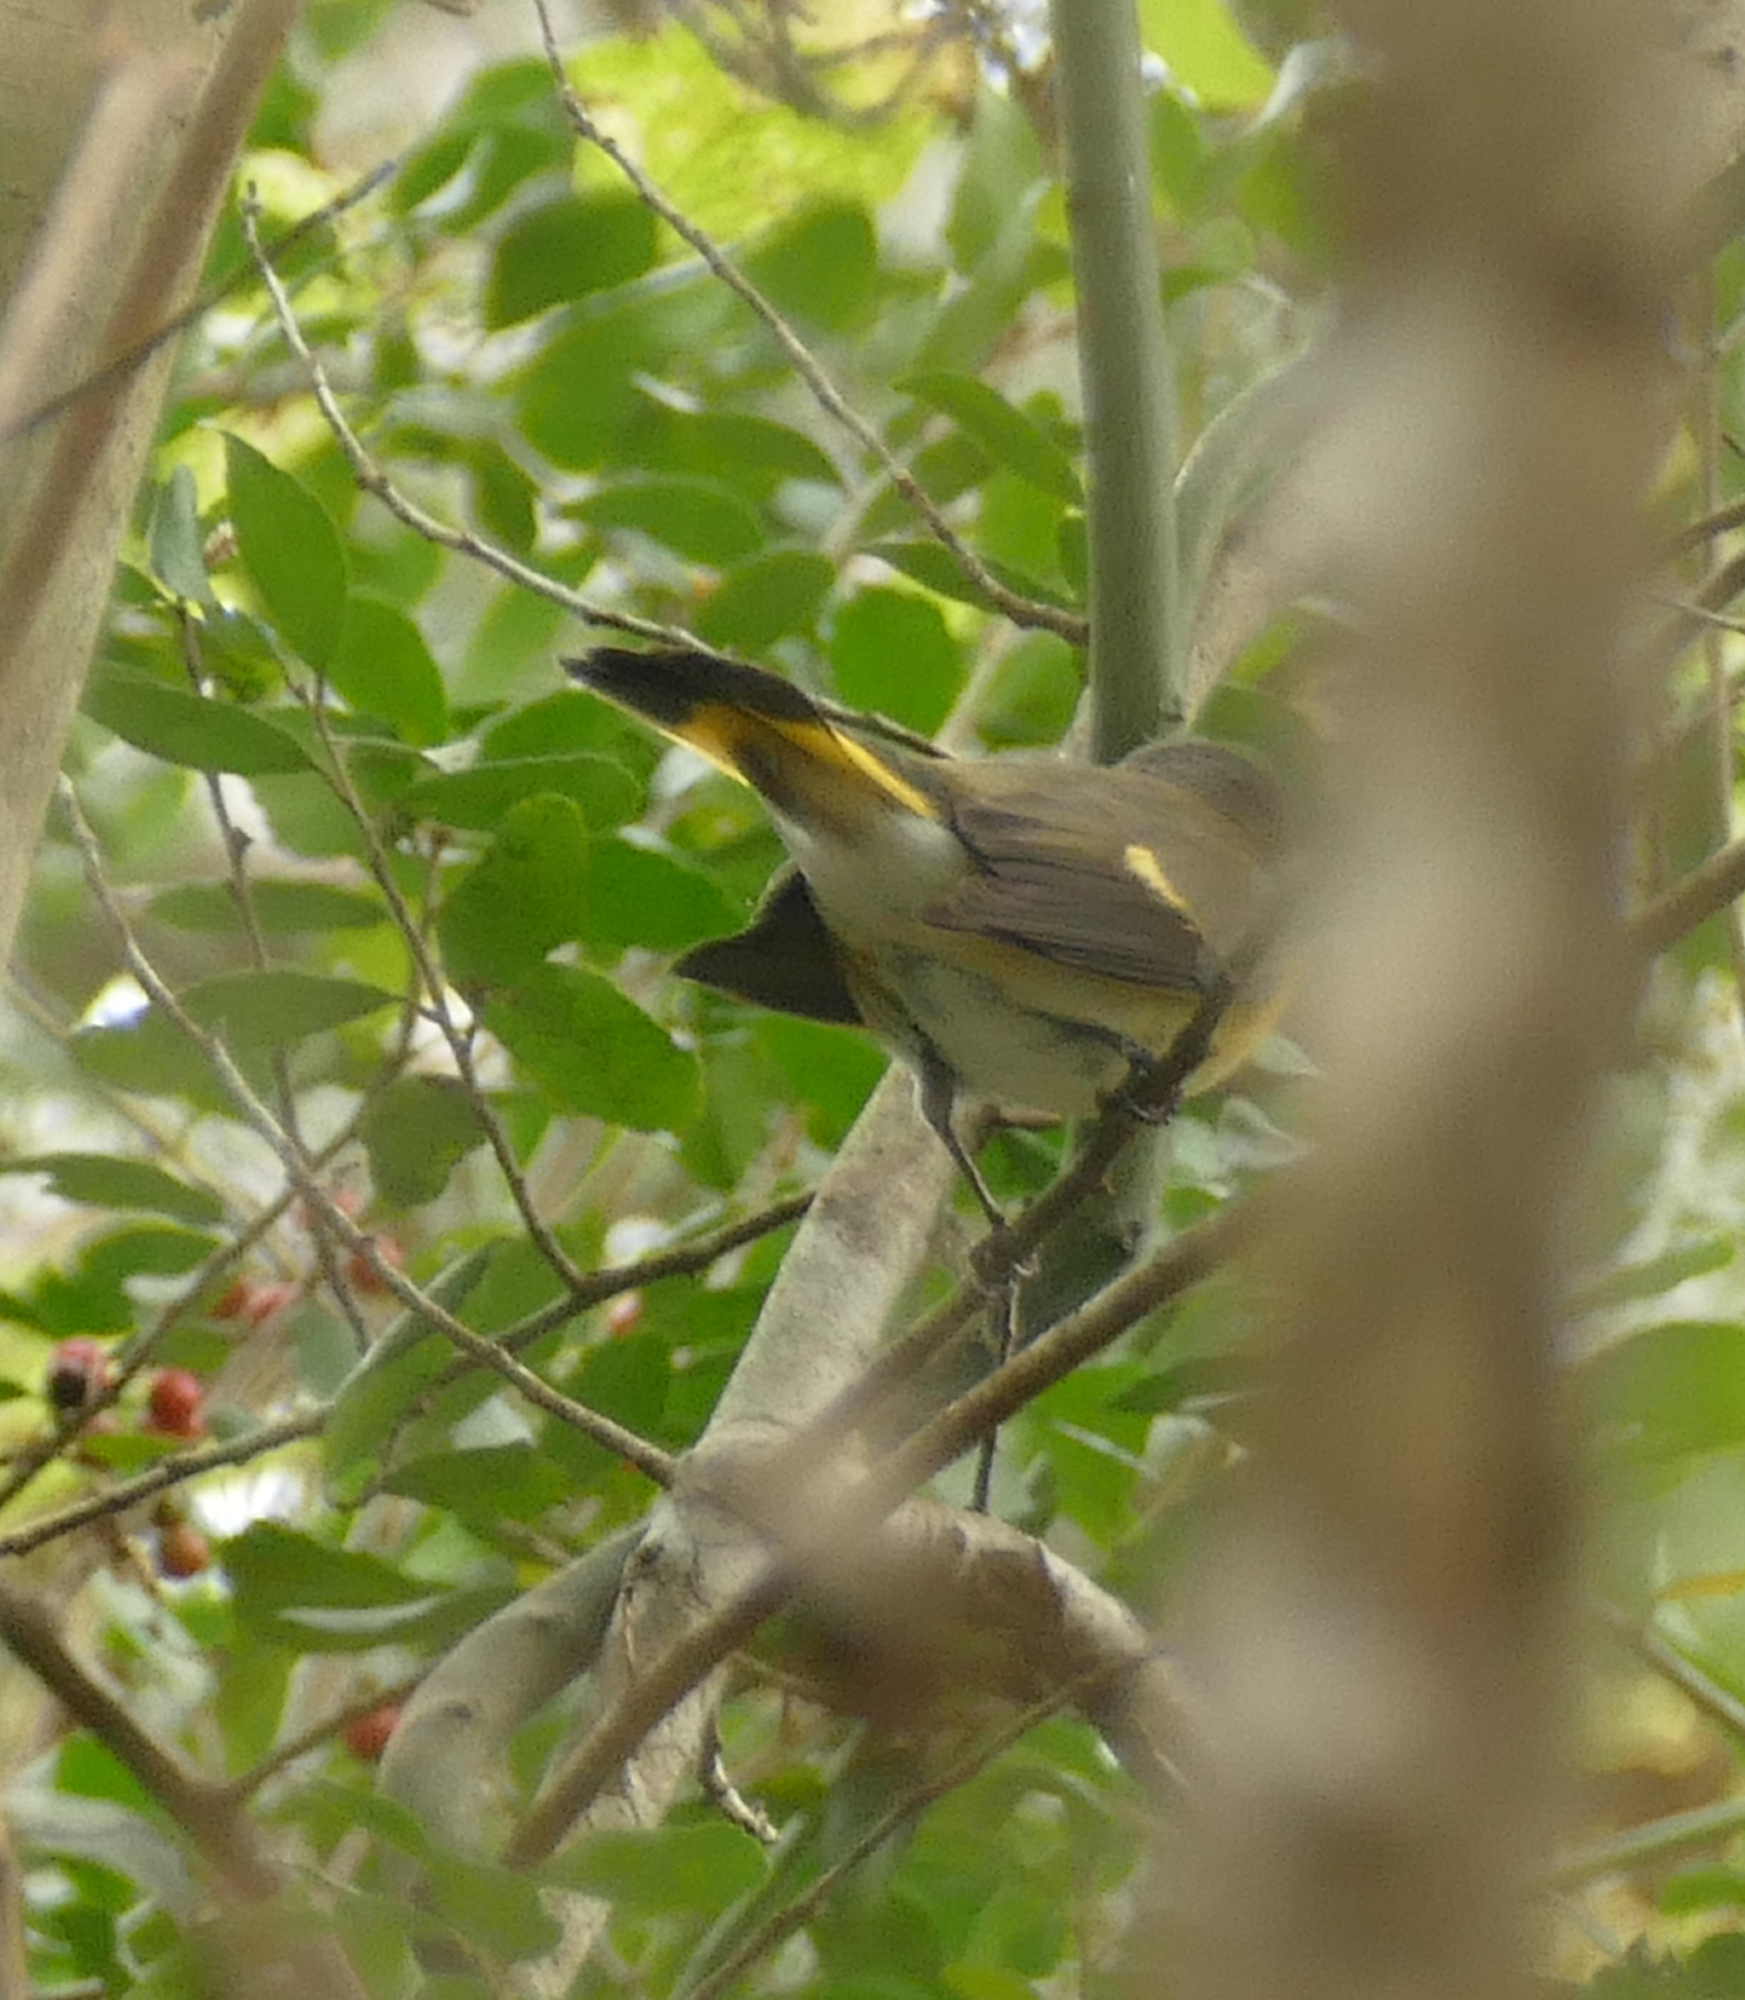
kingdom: Animalia
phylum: Chordata
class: Aves
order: Passeriformes
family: Parulidae
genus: Setophaga
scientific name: Setophaga ruticilla
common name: American redstart
